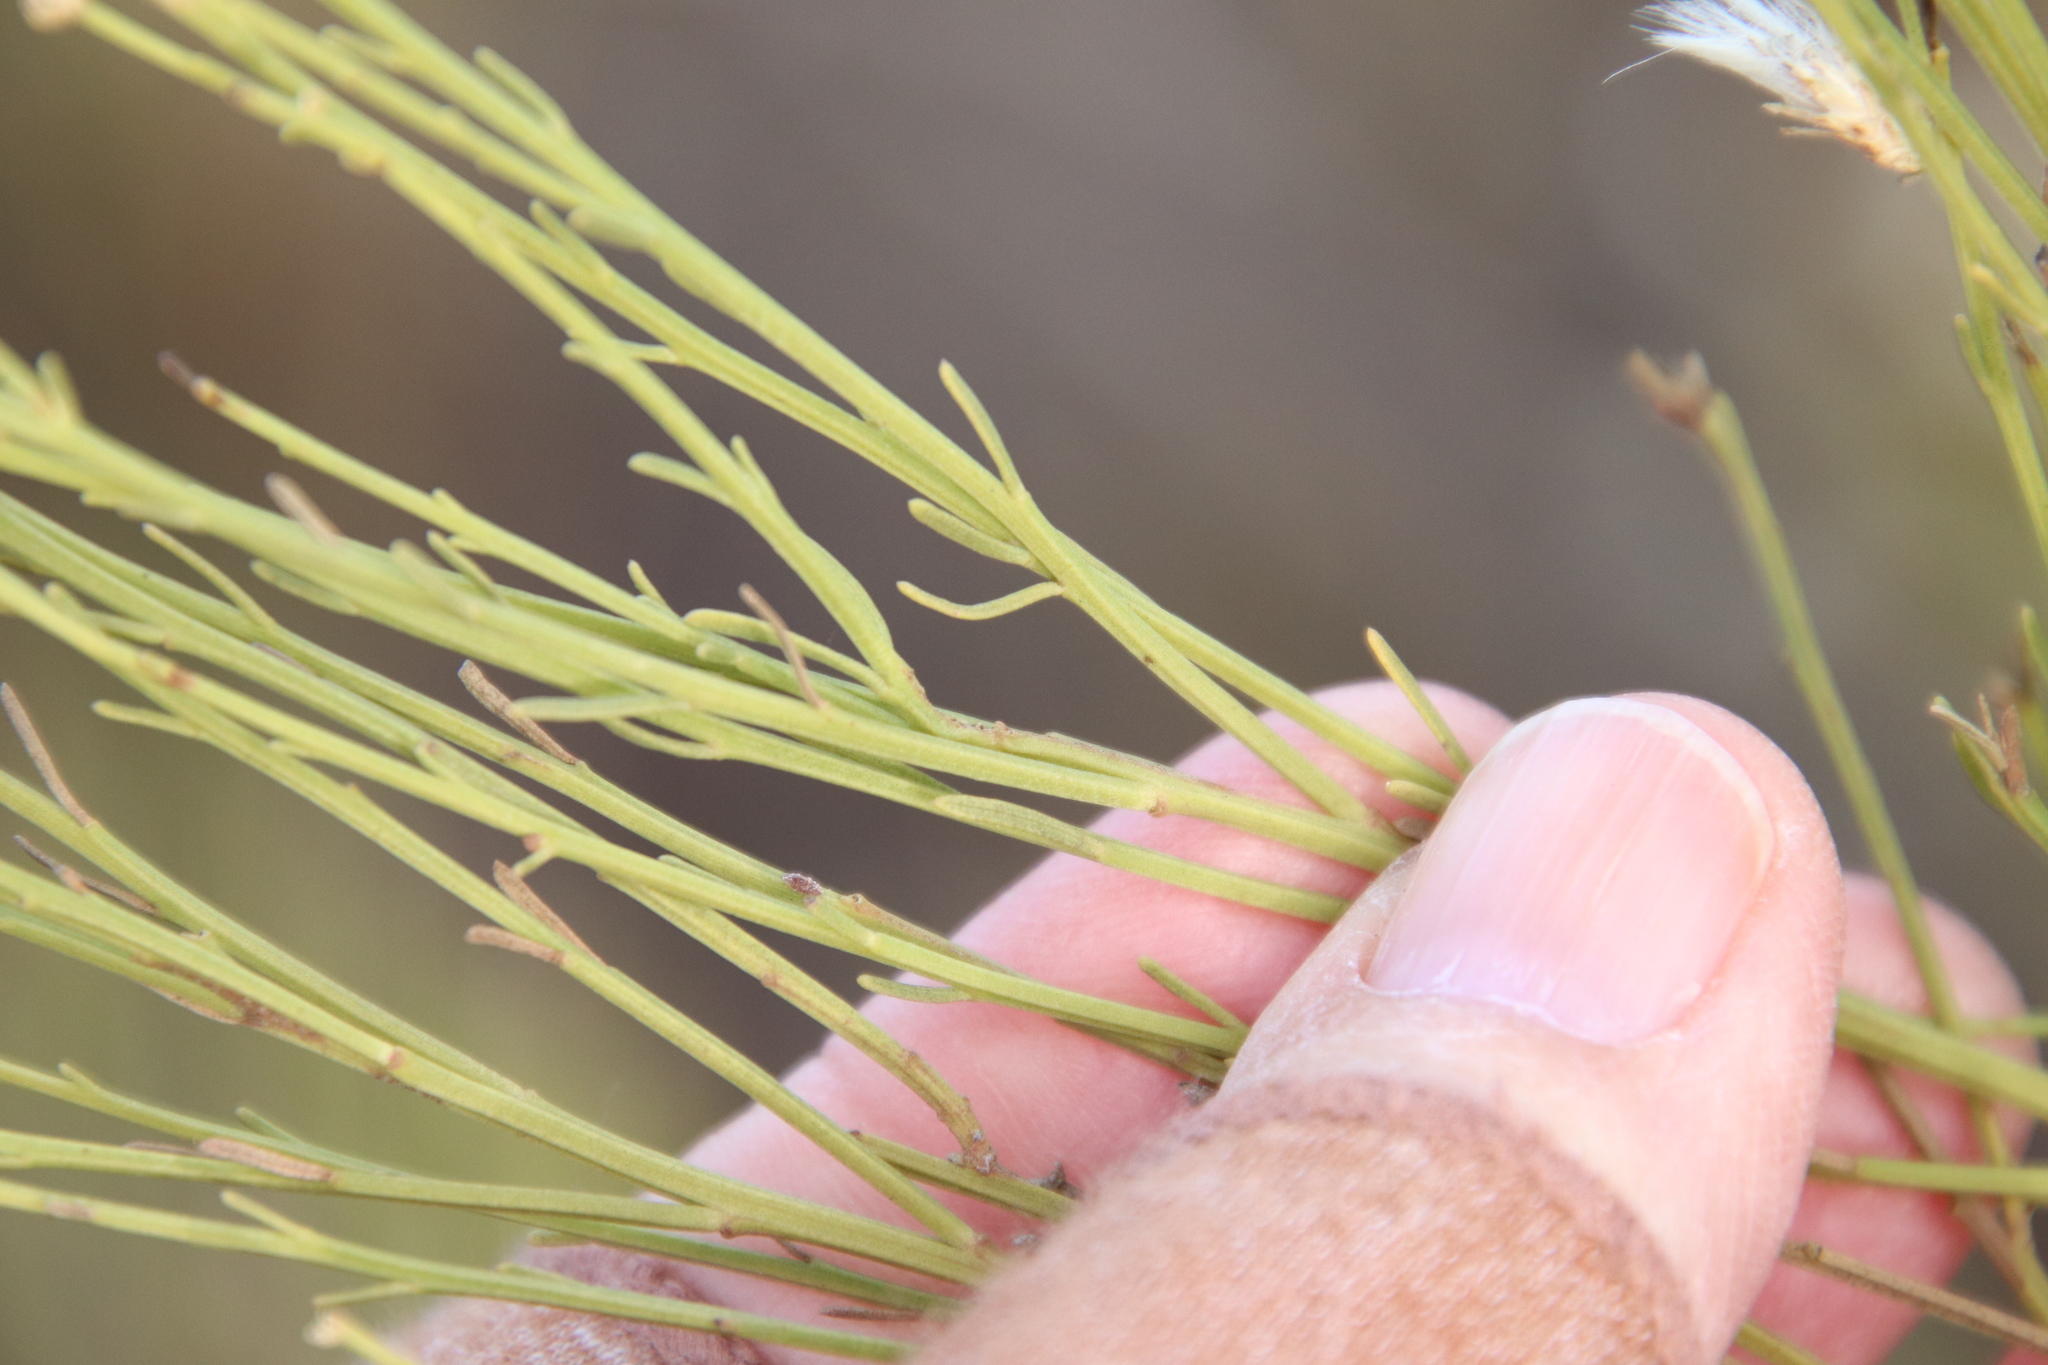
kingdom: Plantae
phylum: Tracheophyta
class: Magnoliopsida
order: Asterales
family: Asteraceae
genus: Baccharis
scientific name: Baccharis sarothroides
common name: Desert-broom
